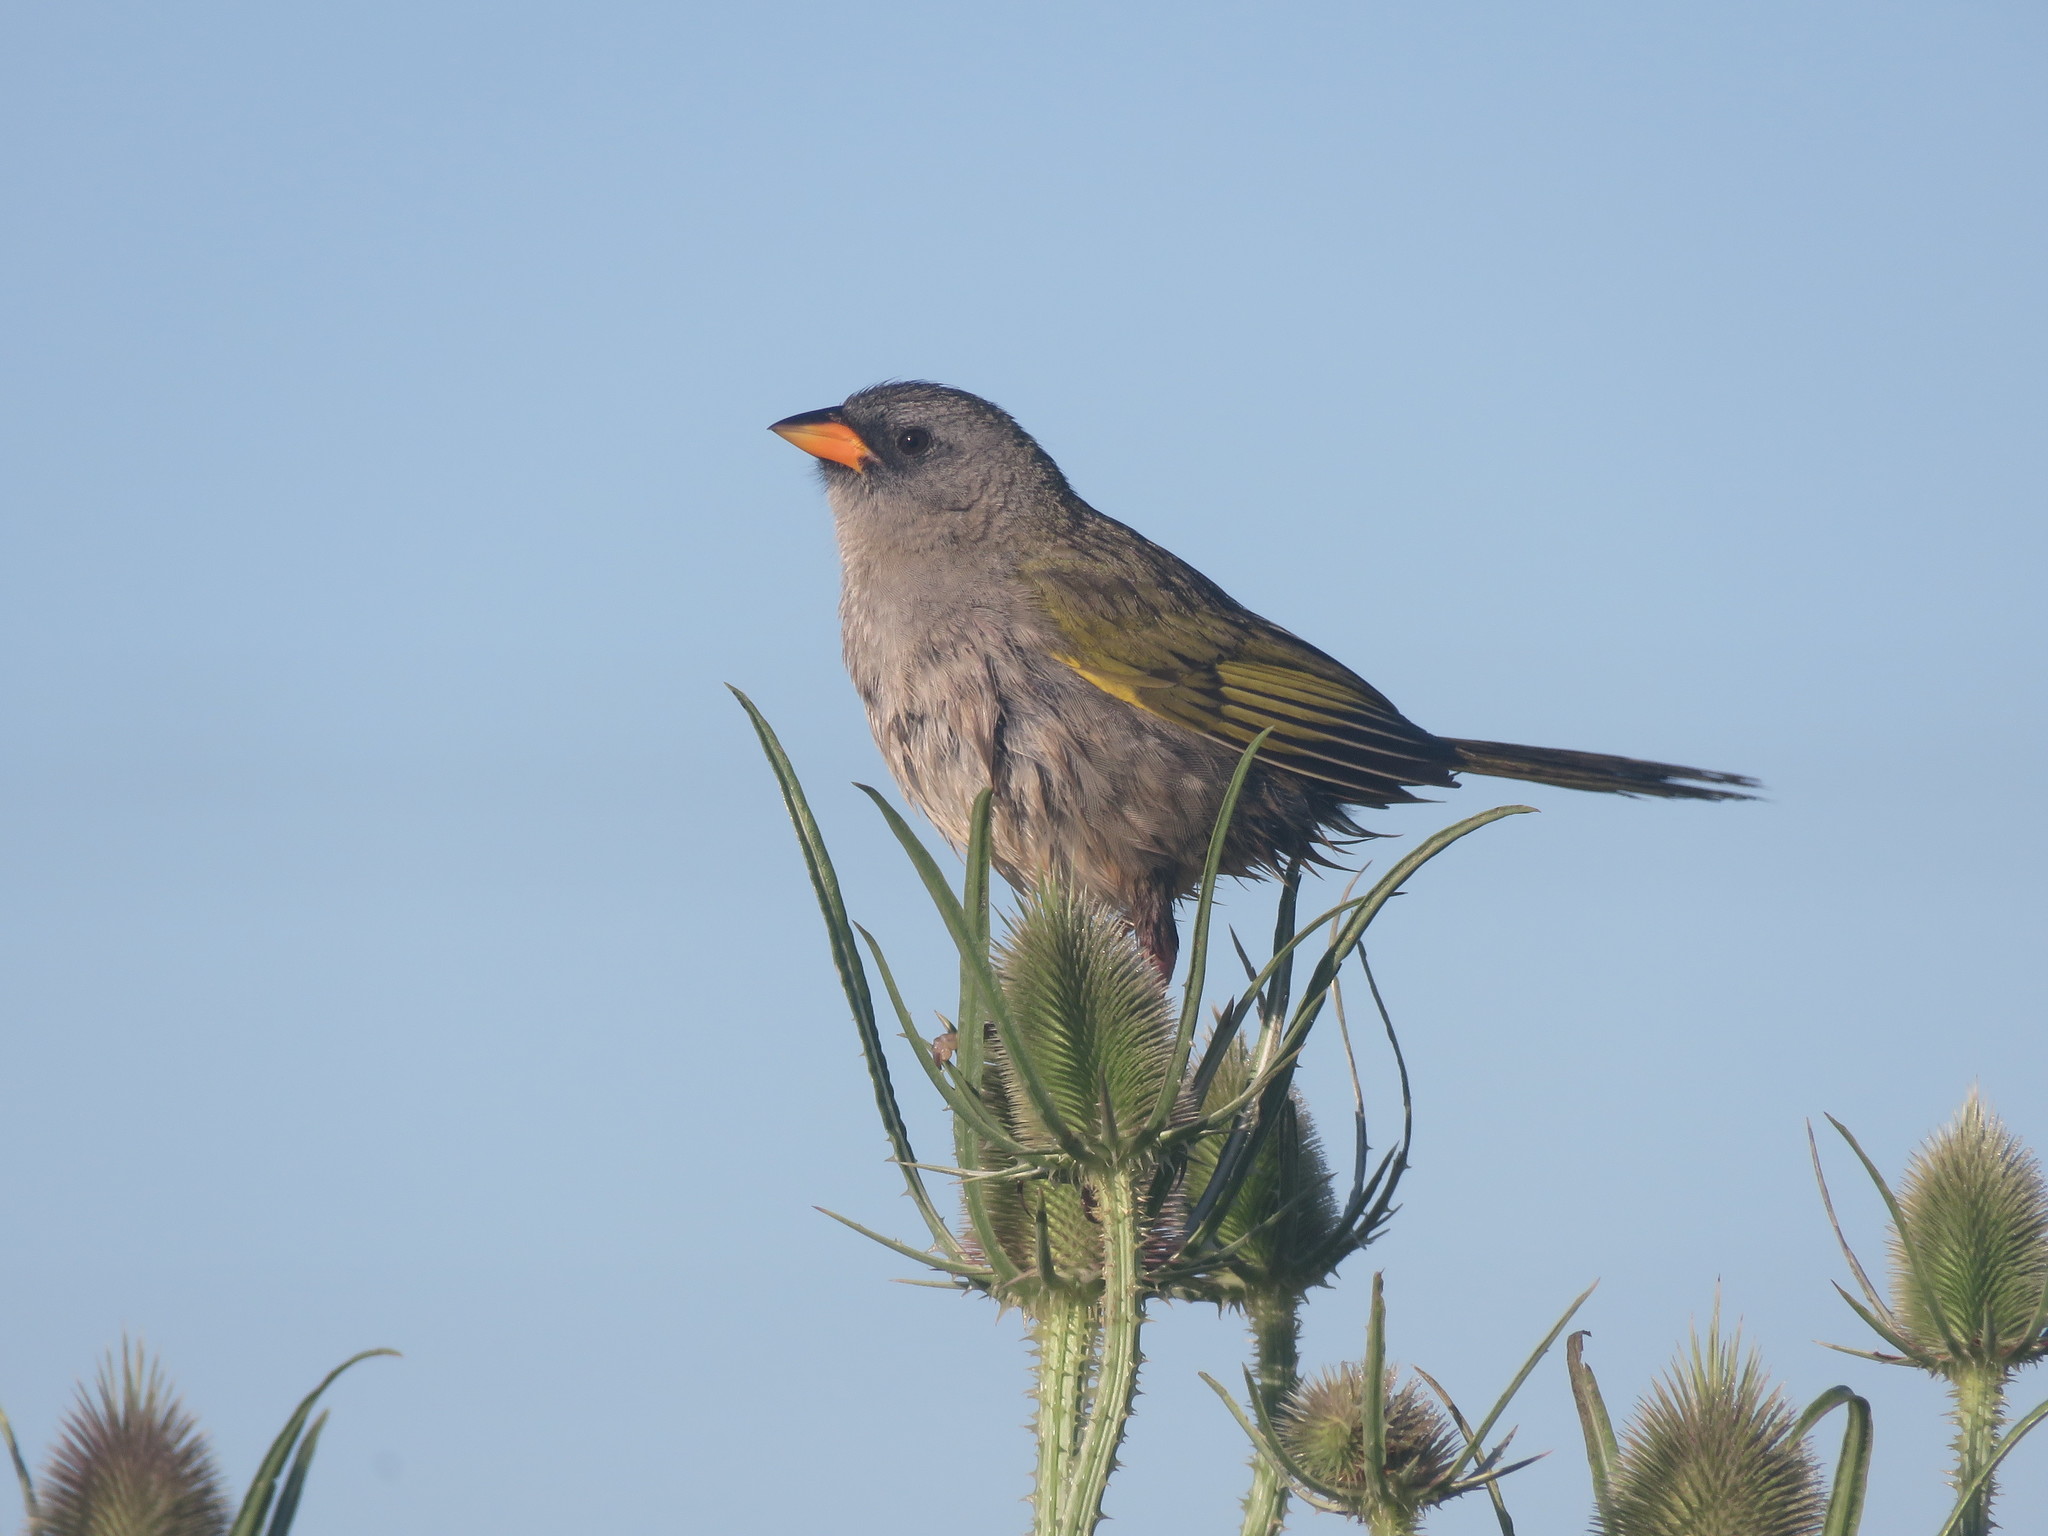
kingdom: Animalia
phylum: Chordata
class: Aves
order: Passeriformes
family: Thraupidae
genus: Embernagra
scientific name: Embernagra platensis
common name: Pampa finch
